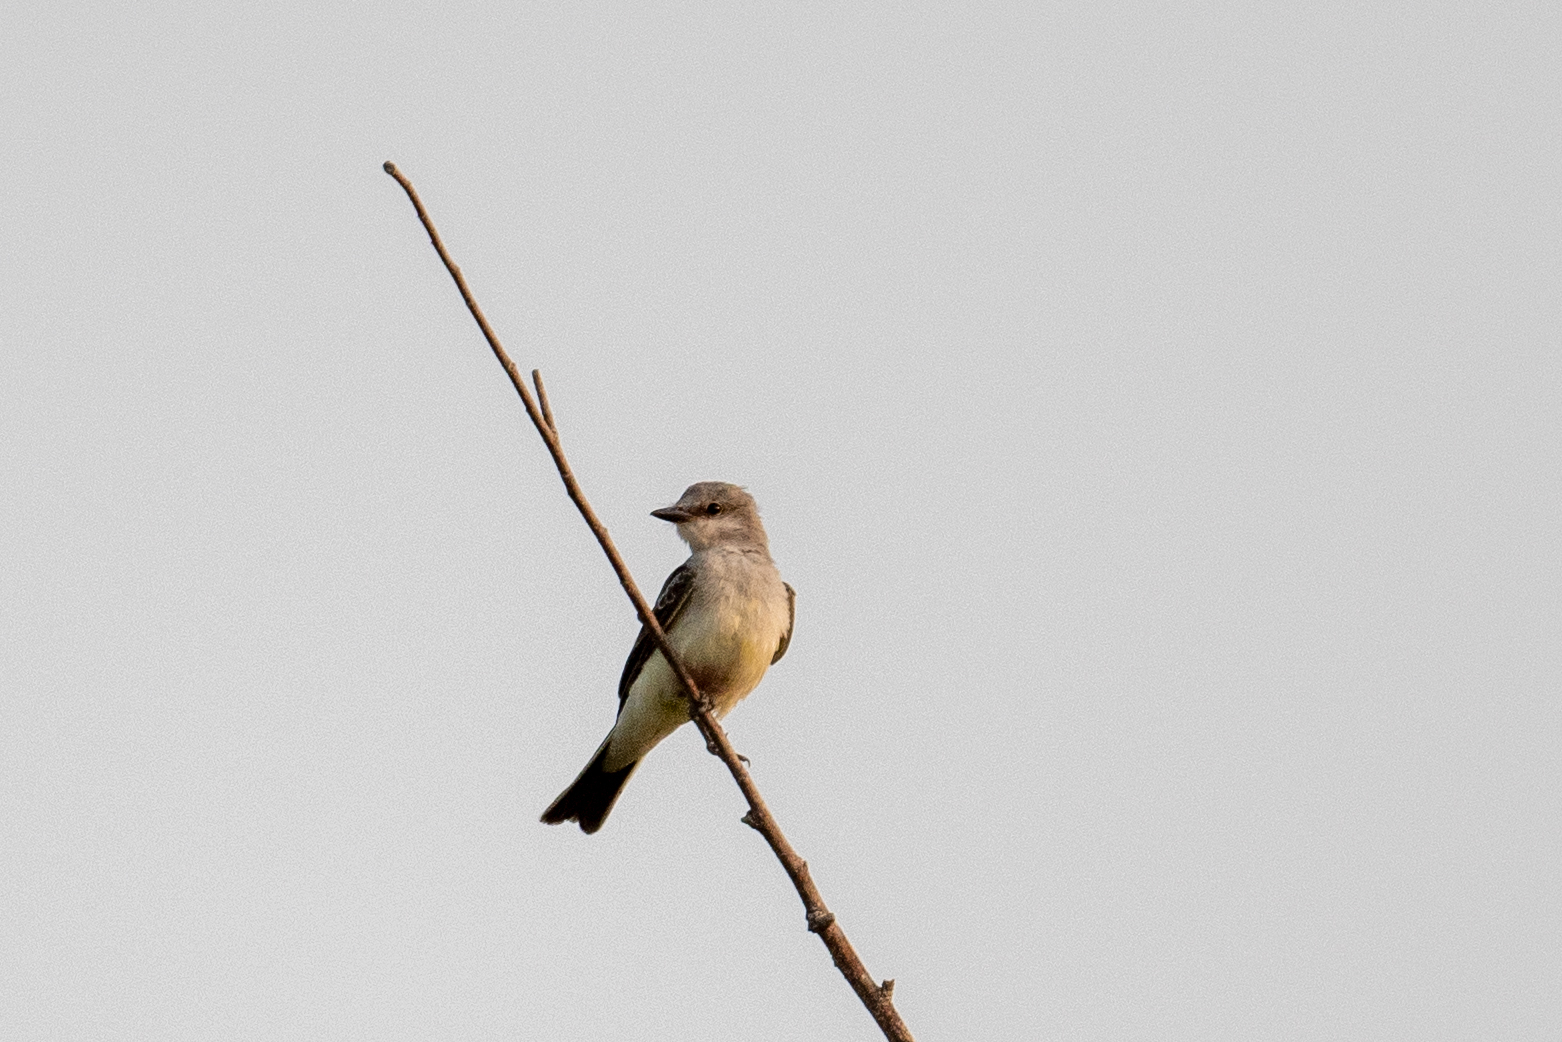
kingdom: Animalia
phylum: Chordata
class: Aves
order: Passeriformes
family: Tyrannidae
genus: Tyrannus
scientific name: Tyrannus verticalis
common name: Western kingbird
